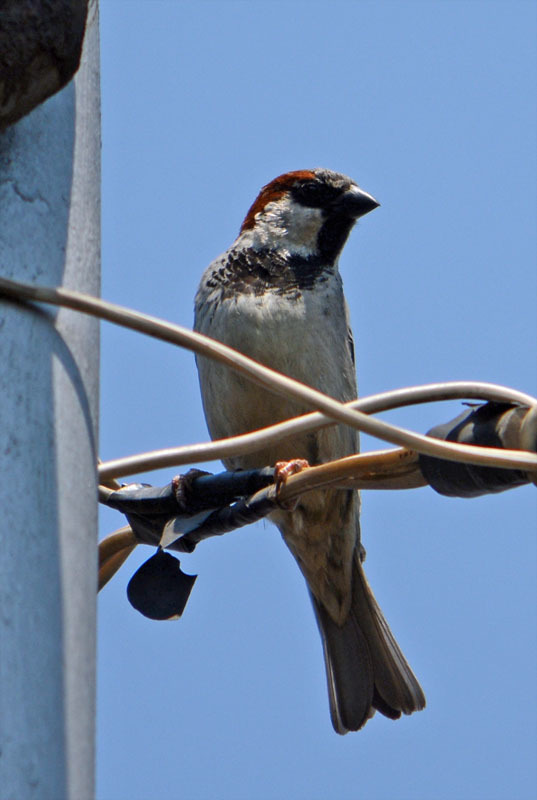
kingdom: Animalia
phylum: Chordata
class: Aves
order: Passeriformes
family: Passeridae
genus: Passer
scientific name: Passer domesticus
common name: House sparrow
